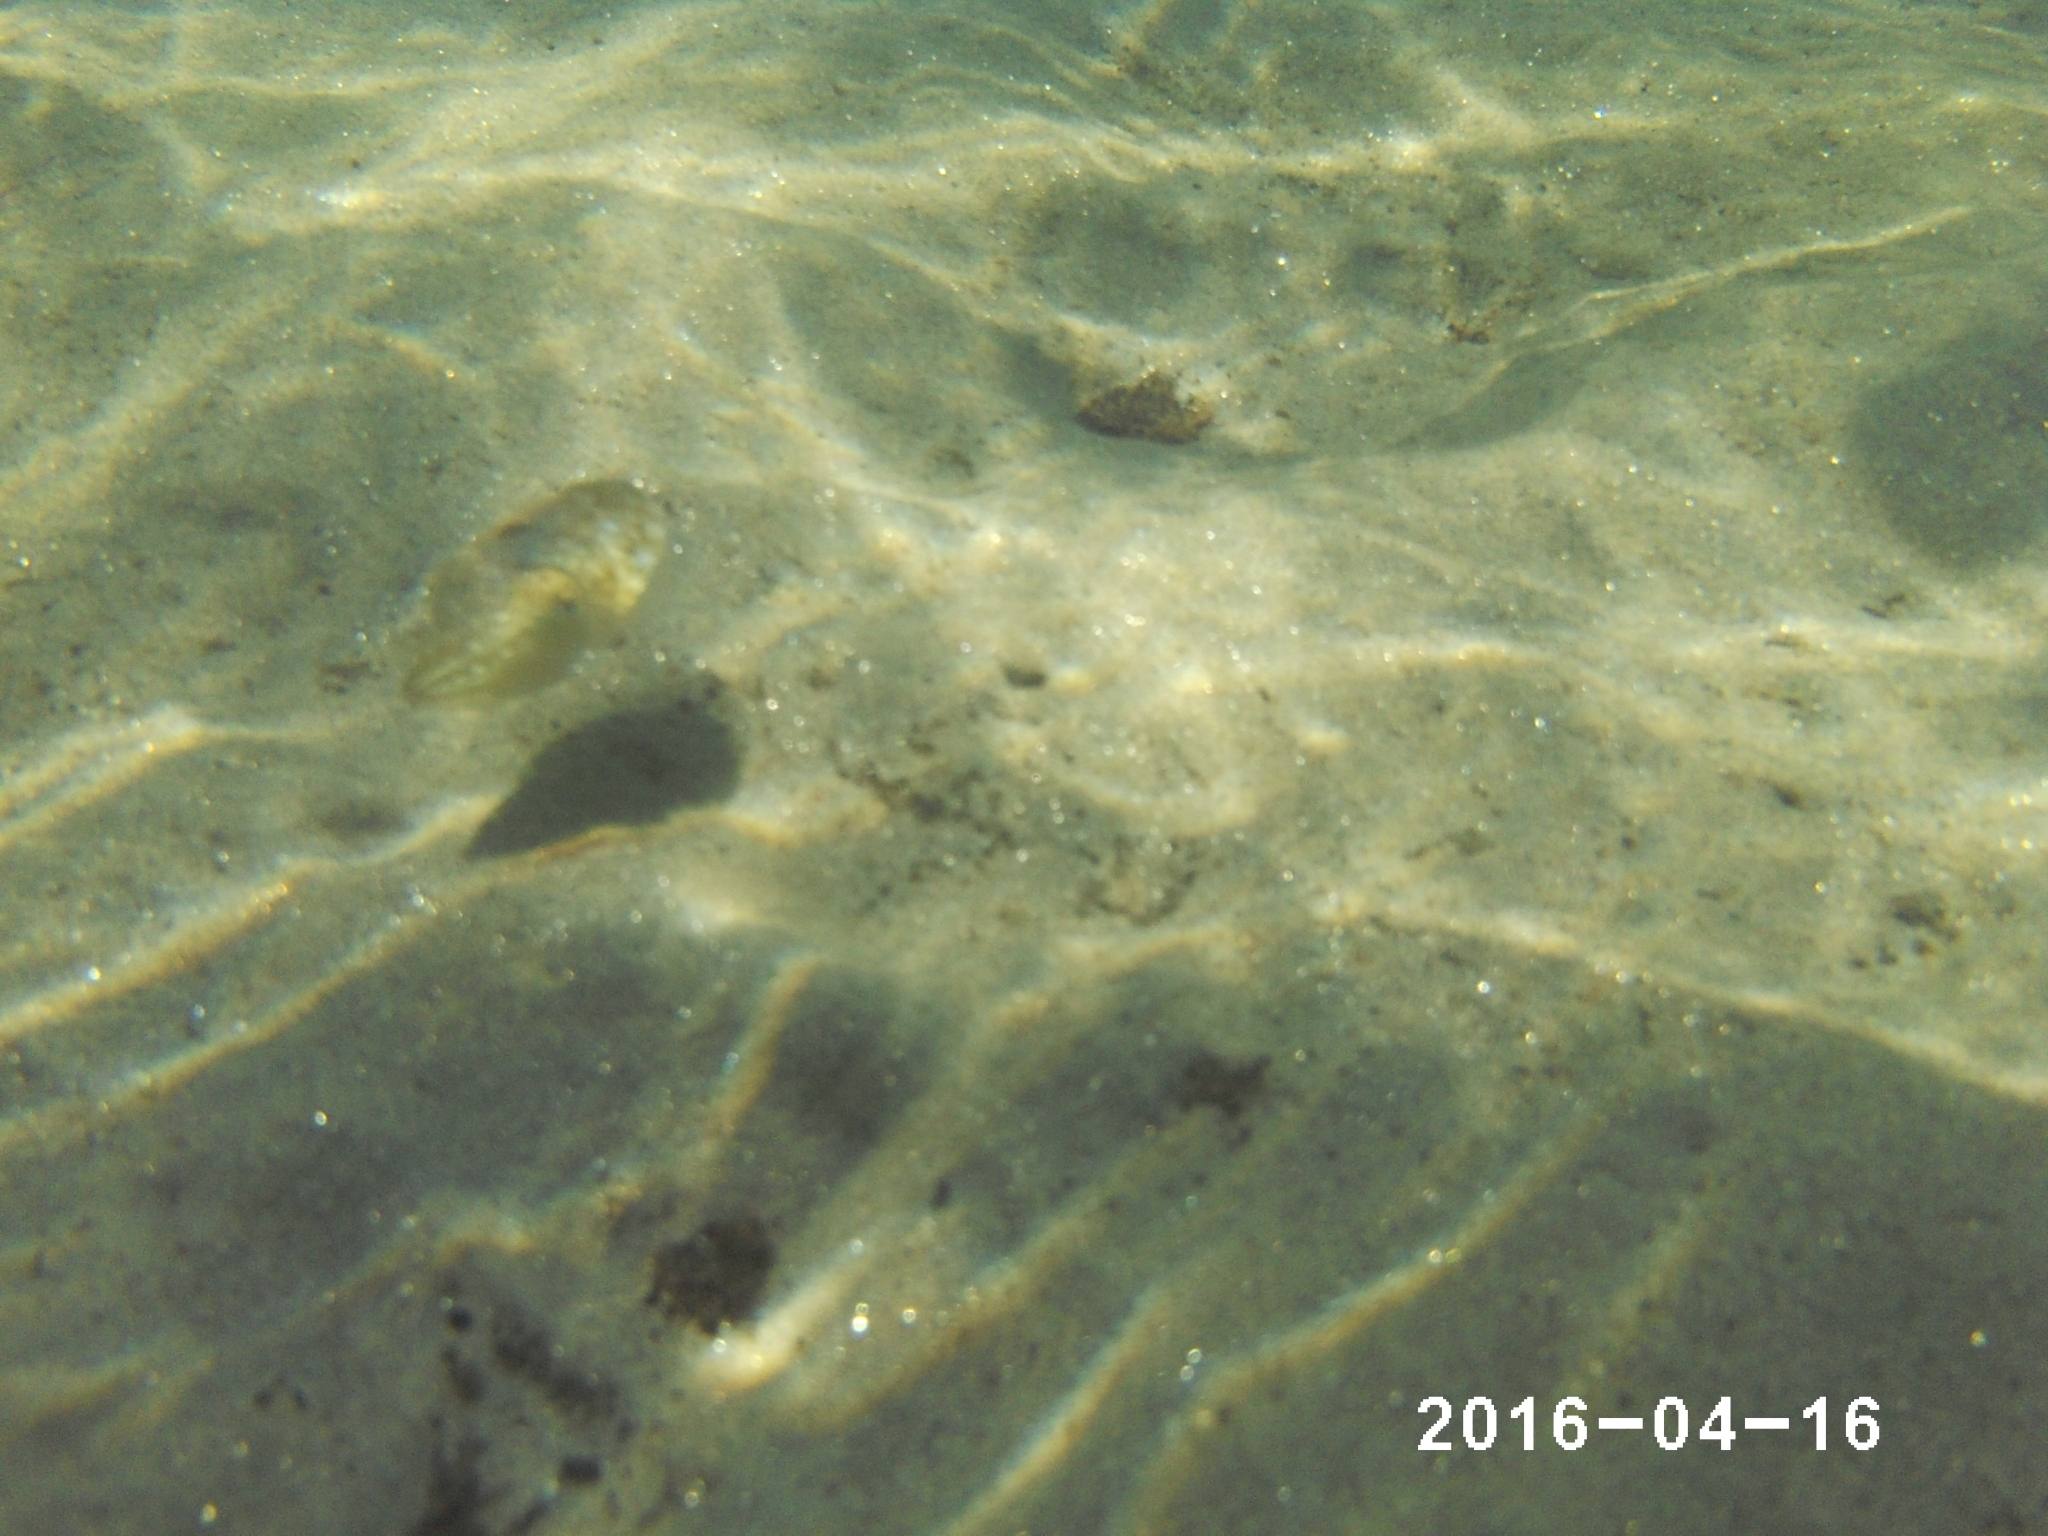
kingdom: Animalia
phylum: Mollusca
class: Cephalopoda
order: Sepiida
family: Sepiidae
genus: Sepia
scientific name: Sepia officinalis
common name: Common cuttlefish
